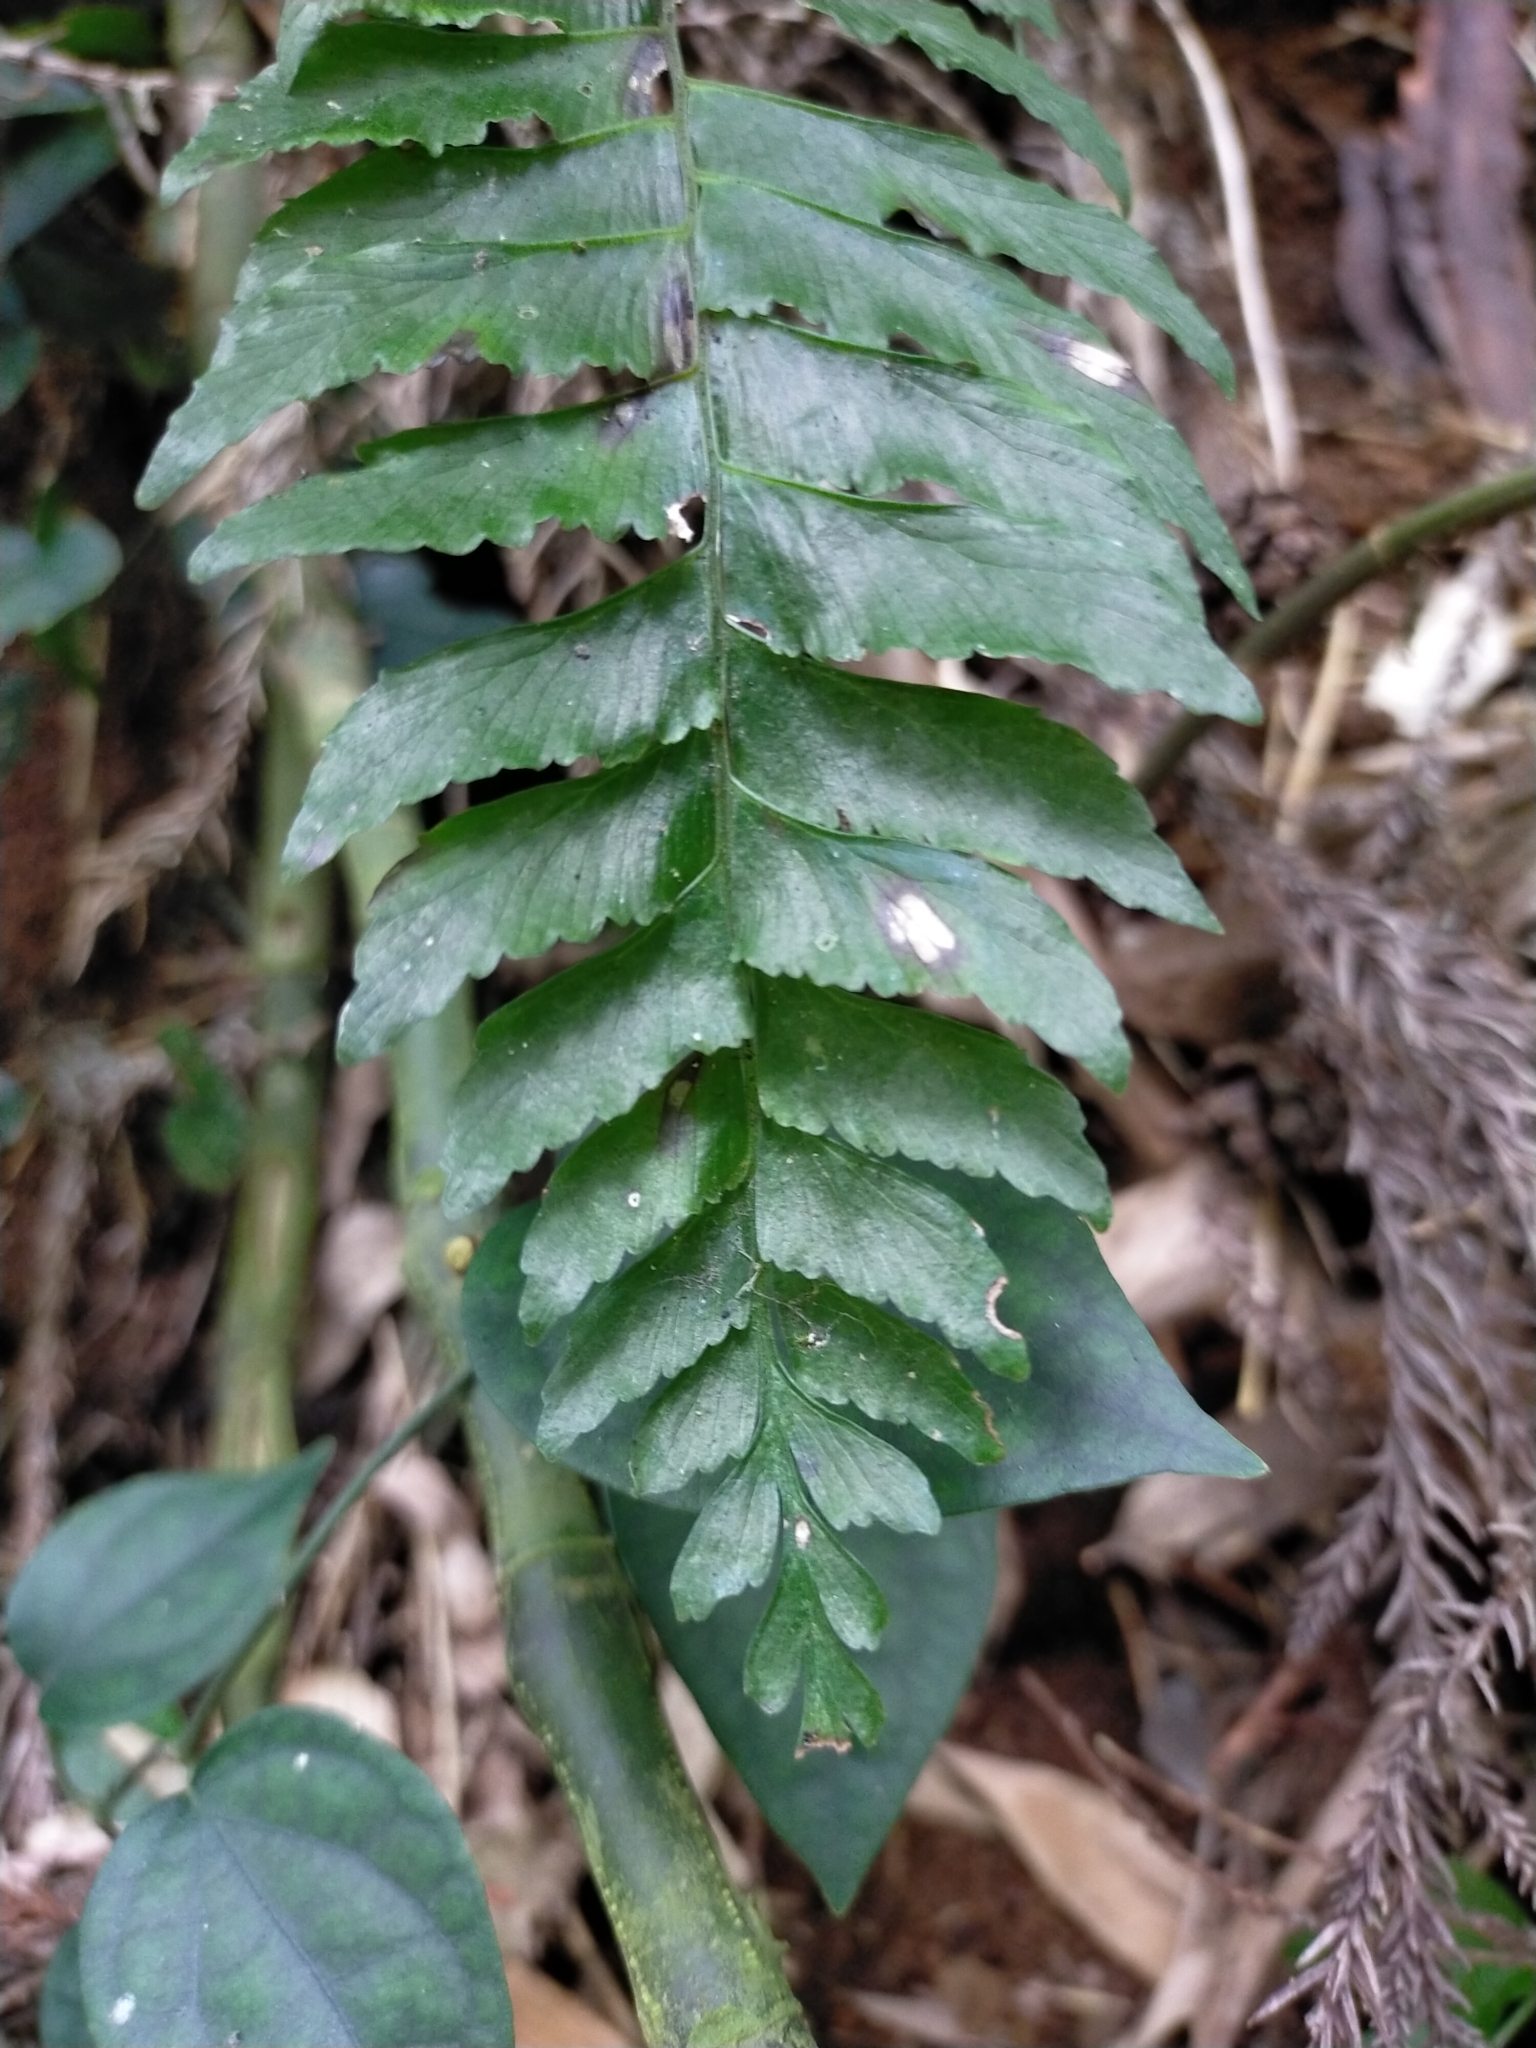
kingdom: Plantae
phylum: Tracheophyta
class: Polypodiopsida
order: Polypodiales
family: Aspleniaceae
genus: Hymenasplenium
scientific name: Hymenasplenium excisum
